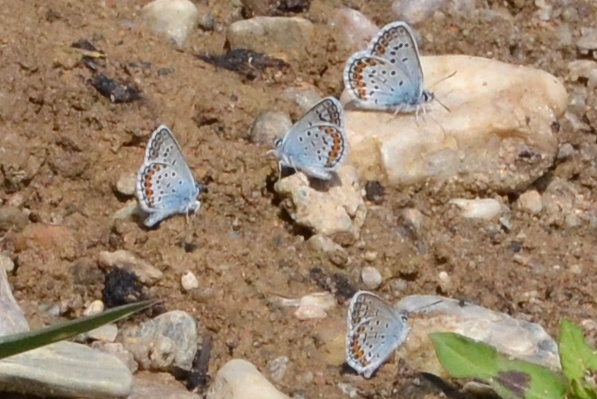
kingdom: Animalia
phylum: Arthropoda
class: Insecta
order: Lepidoptera
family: Lycaenidae
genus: Plebejus
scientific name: Plebejus argus
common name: Silver-studded blue
